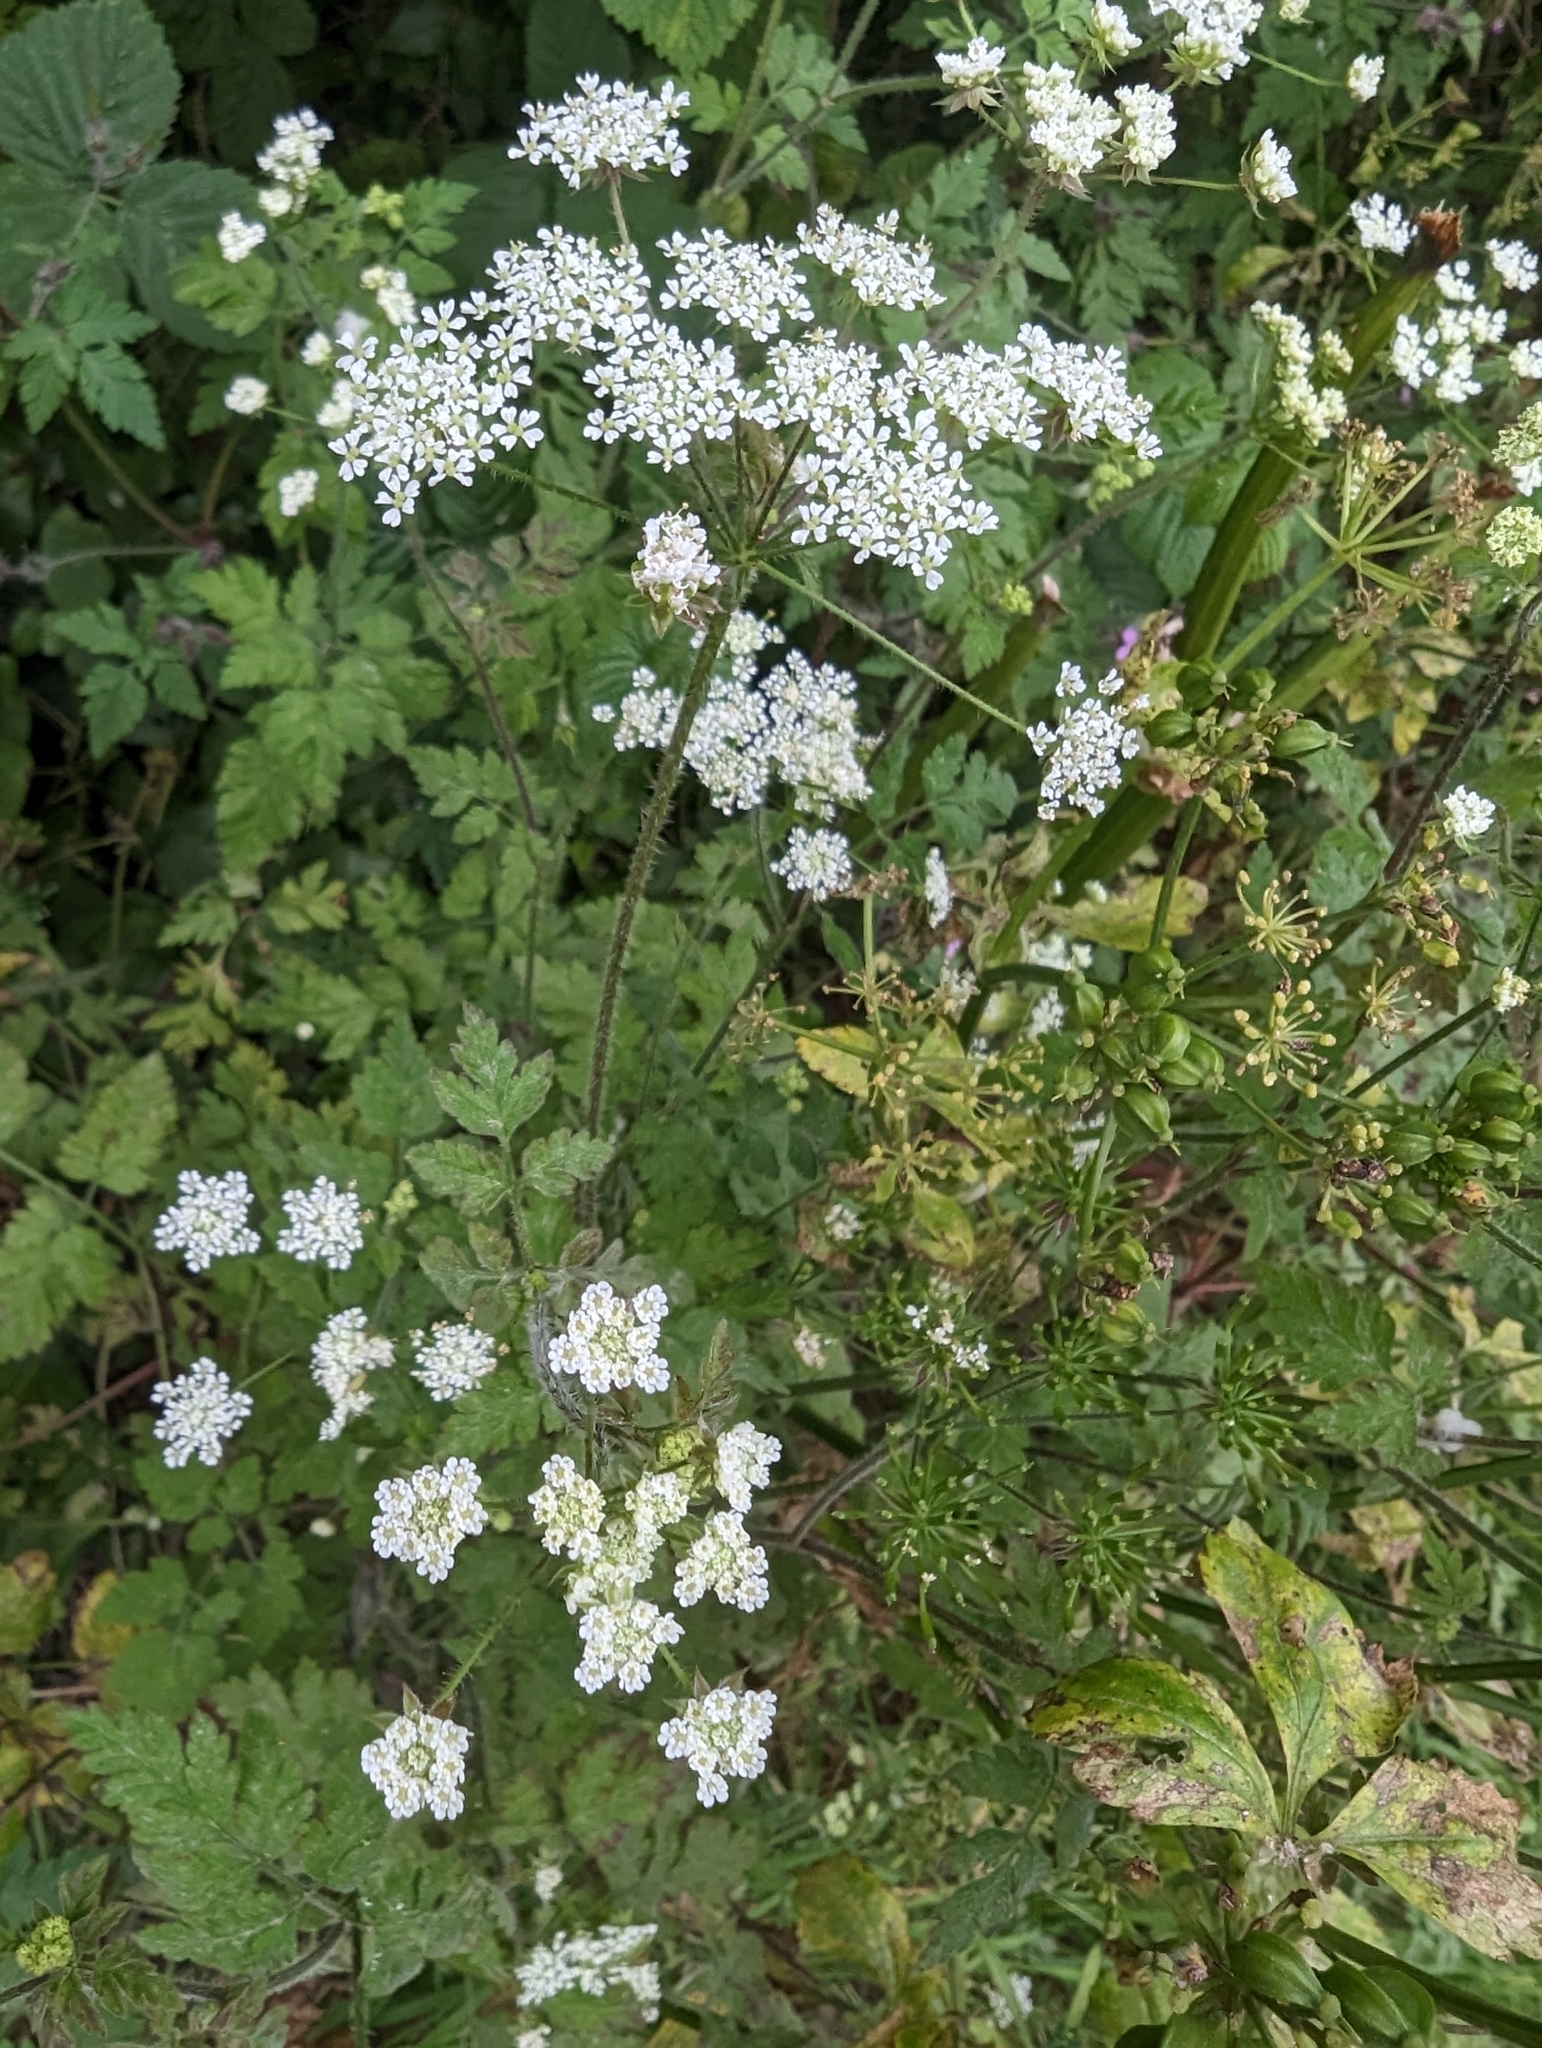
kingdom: Plantae
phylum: Tracheophyta
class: Magnoliopsida
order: Apiales
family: Apiaceae
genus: Chaerophyllum
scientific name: Chaerophyllum temulum
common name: Rough chervil
